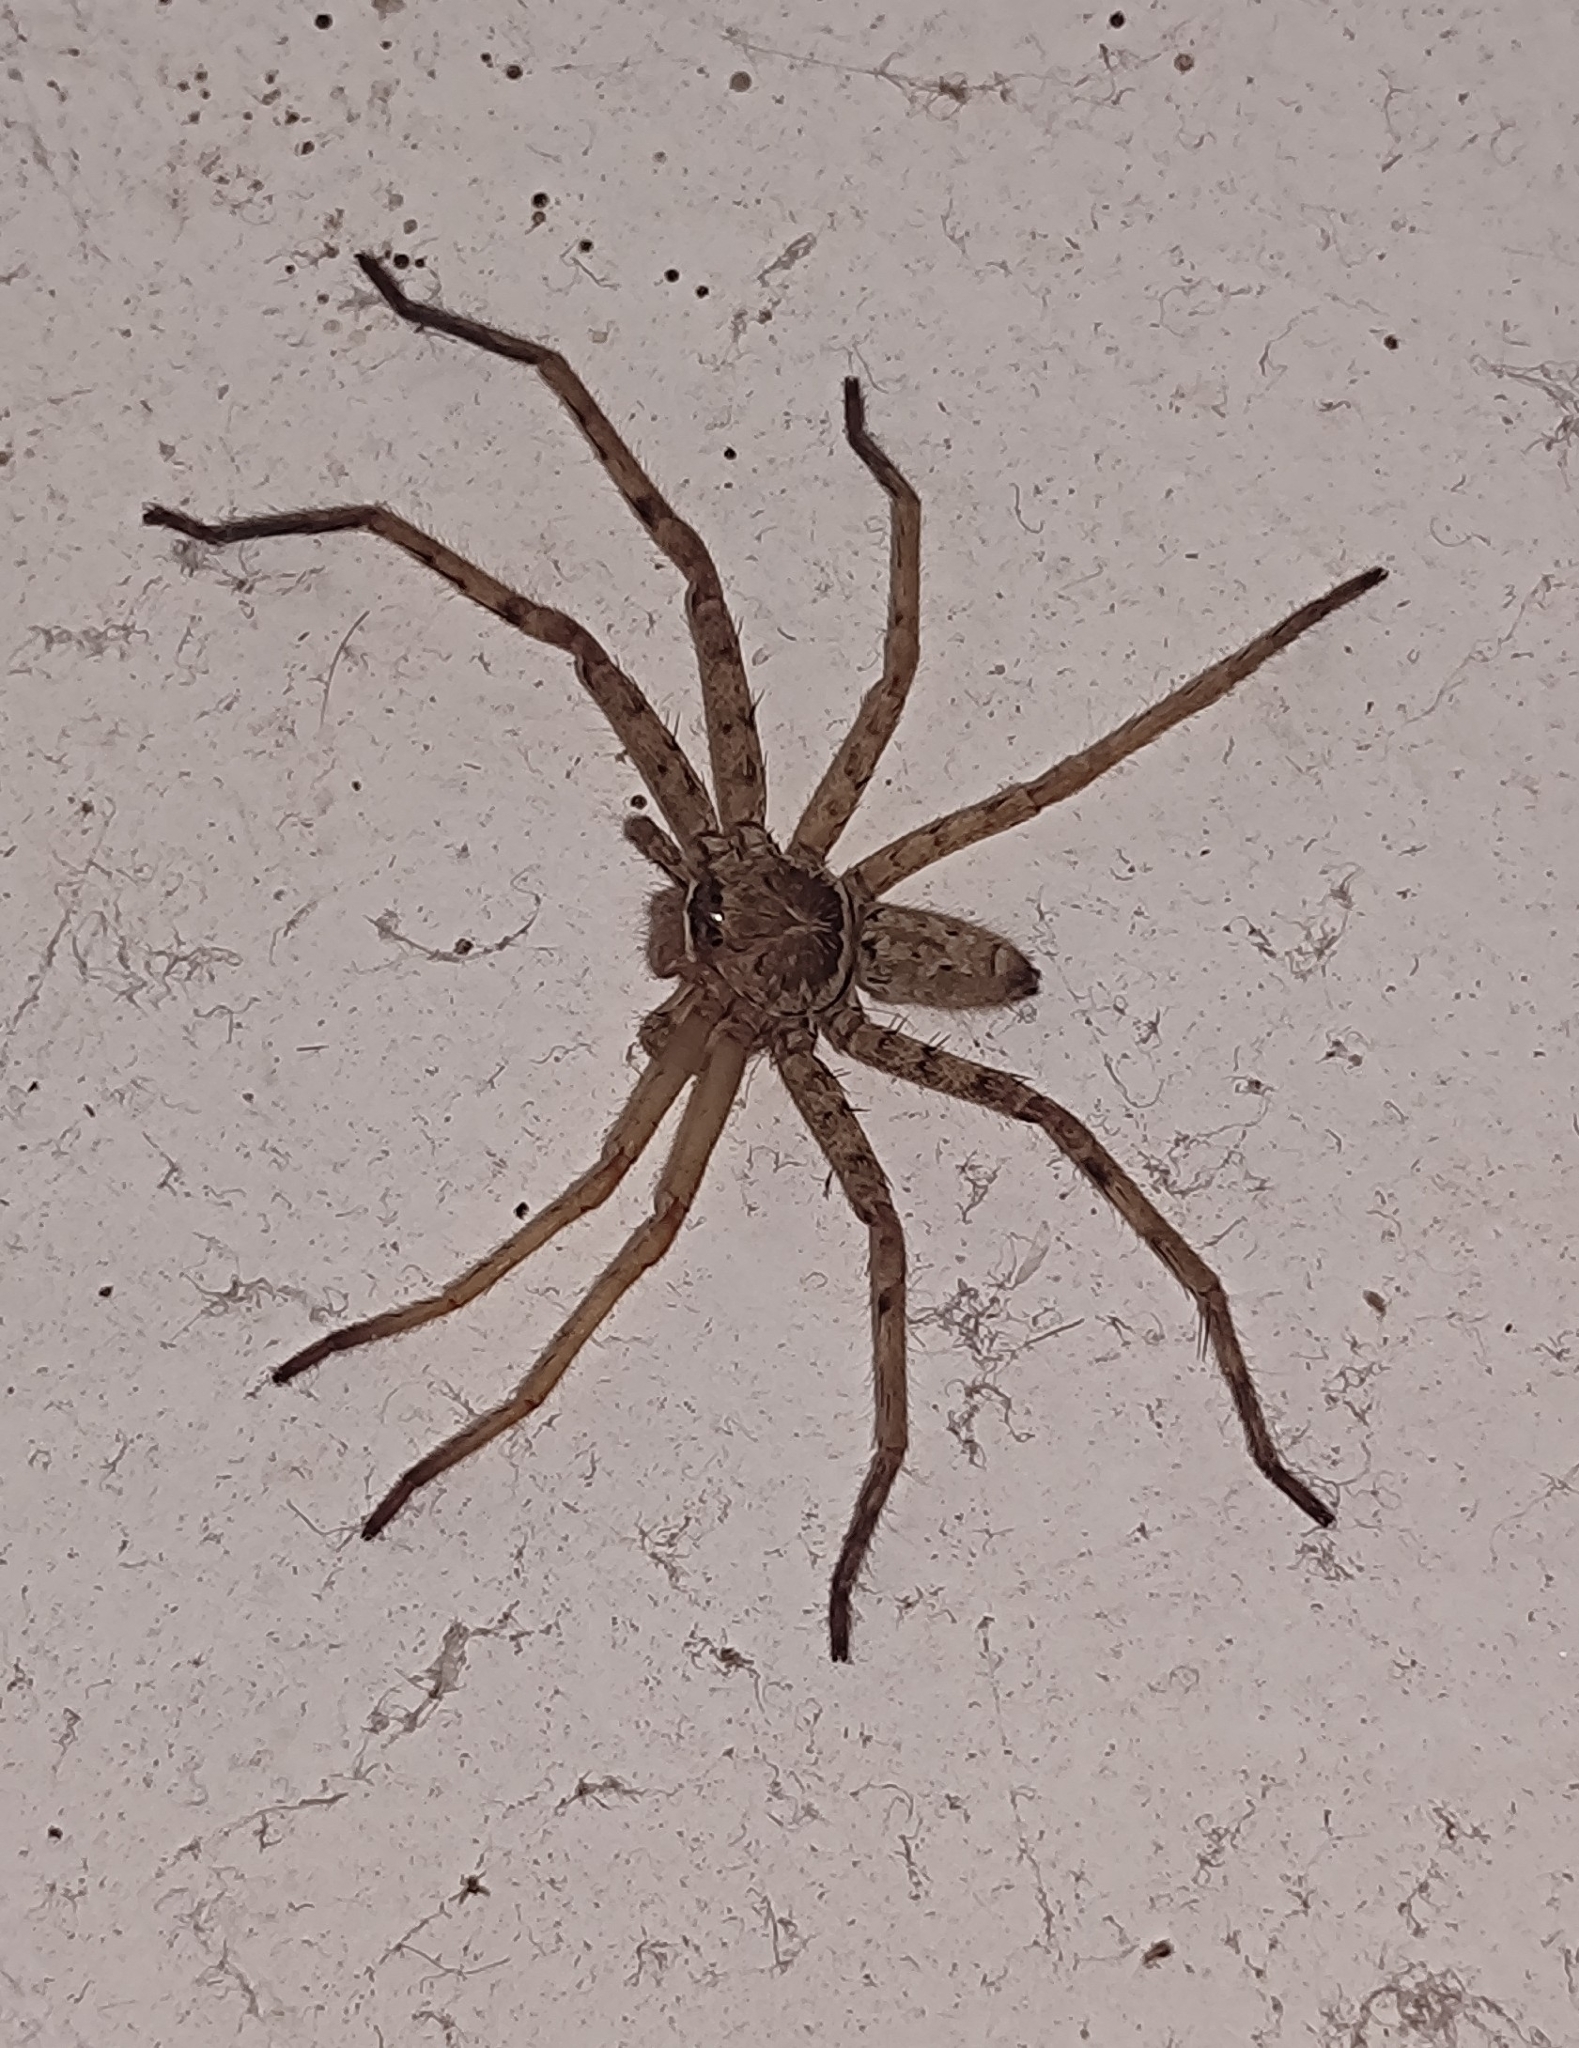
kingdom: Animalia
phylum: Arthropoda
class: Arachnida
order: Araneae
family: Sparassidae
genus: Heteropoda
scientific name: Heteropoda venatoria
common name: Huntsman spider
